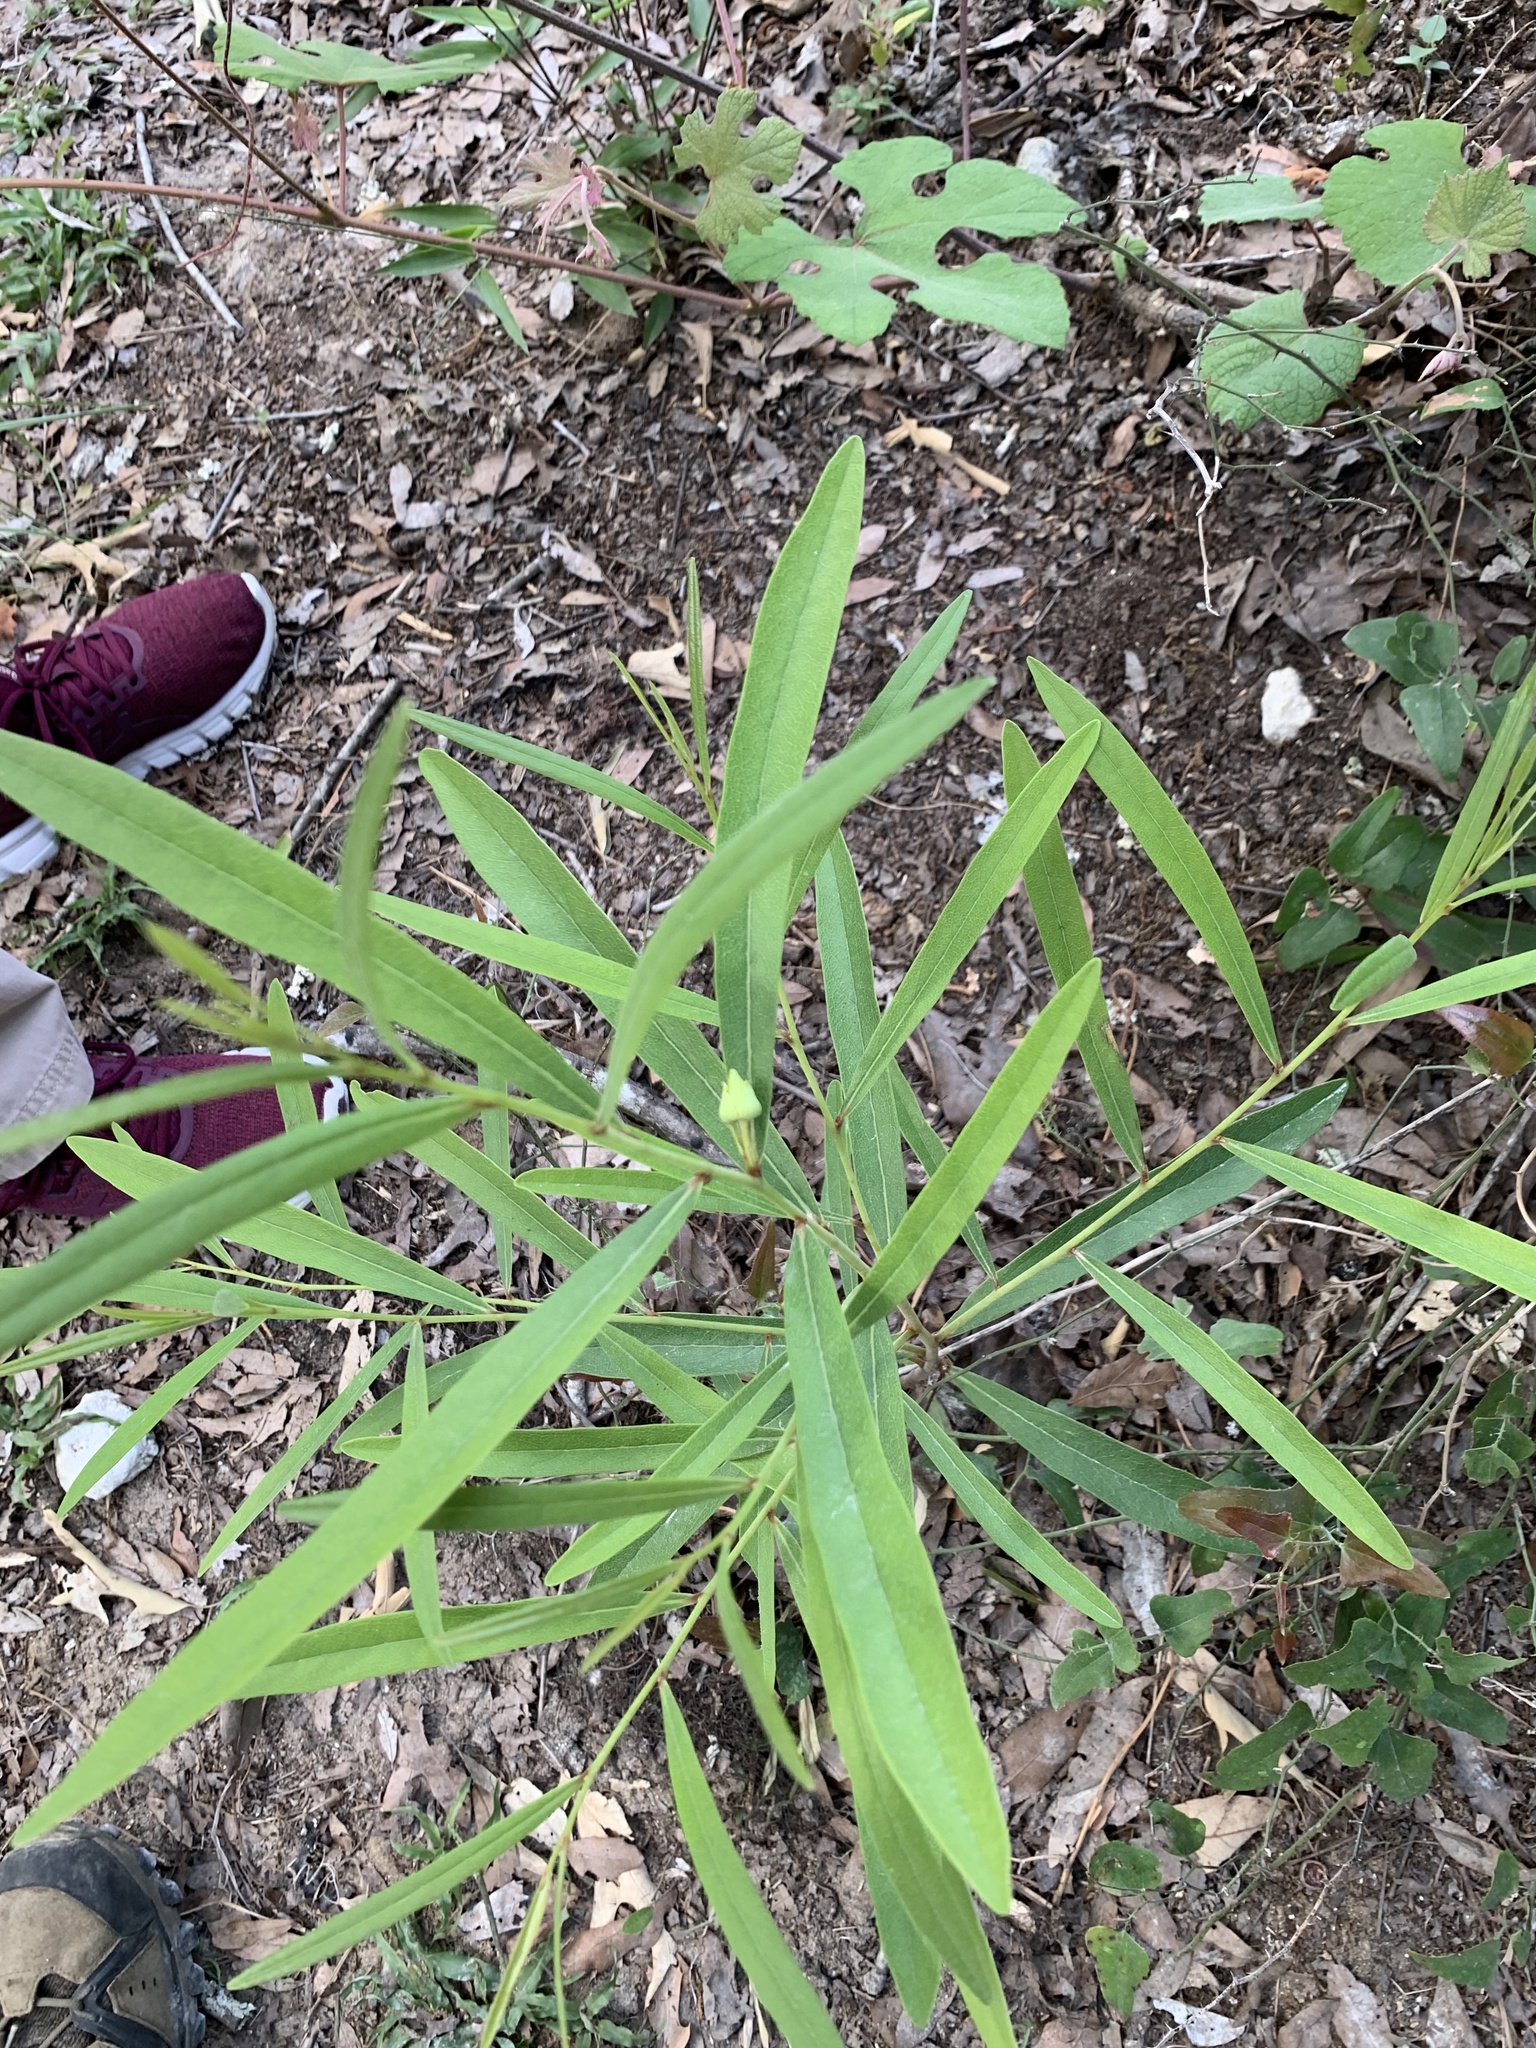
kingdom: Plantae
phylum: Tracheophyta
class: Magnoliopsida
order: Magnoliales
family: Annonaceae
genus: Asimina
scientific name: Asimina longifolia
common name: Polecatbush
